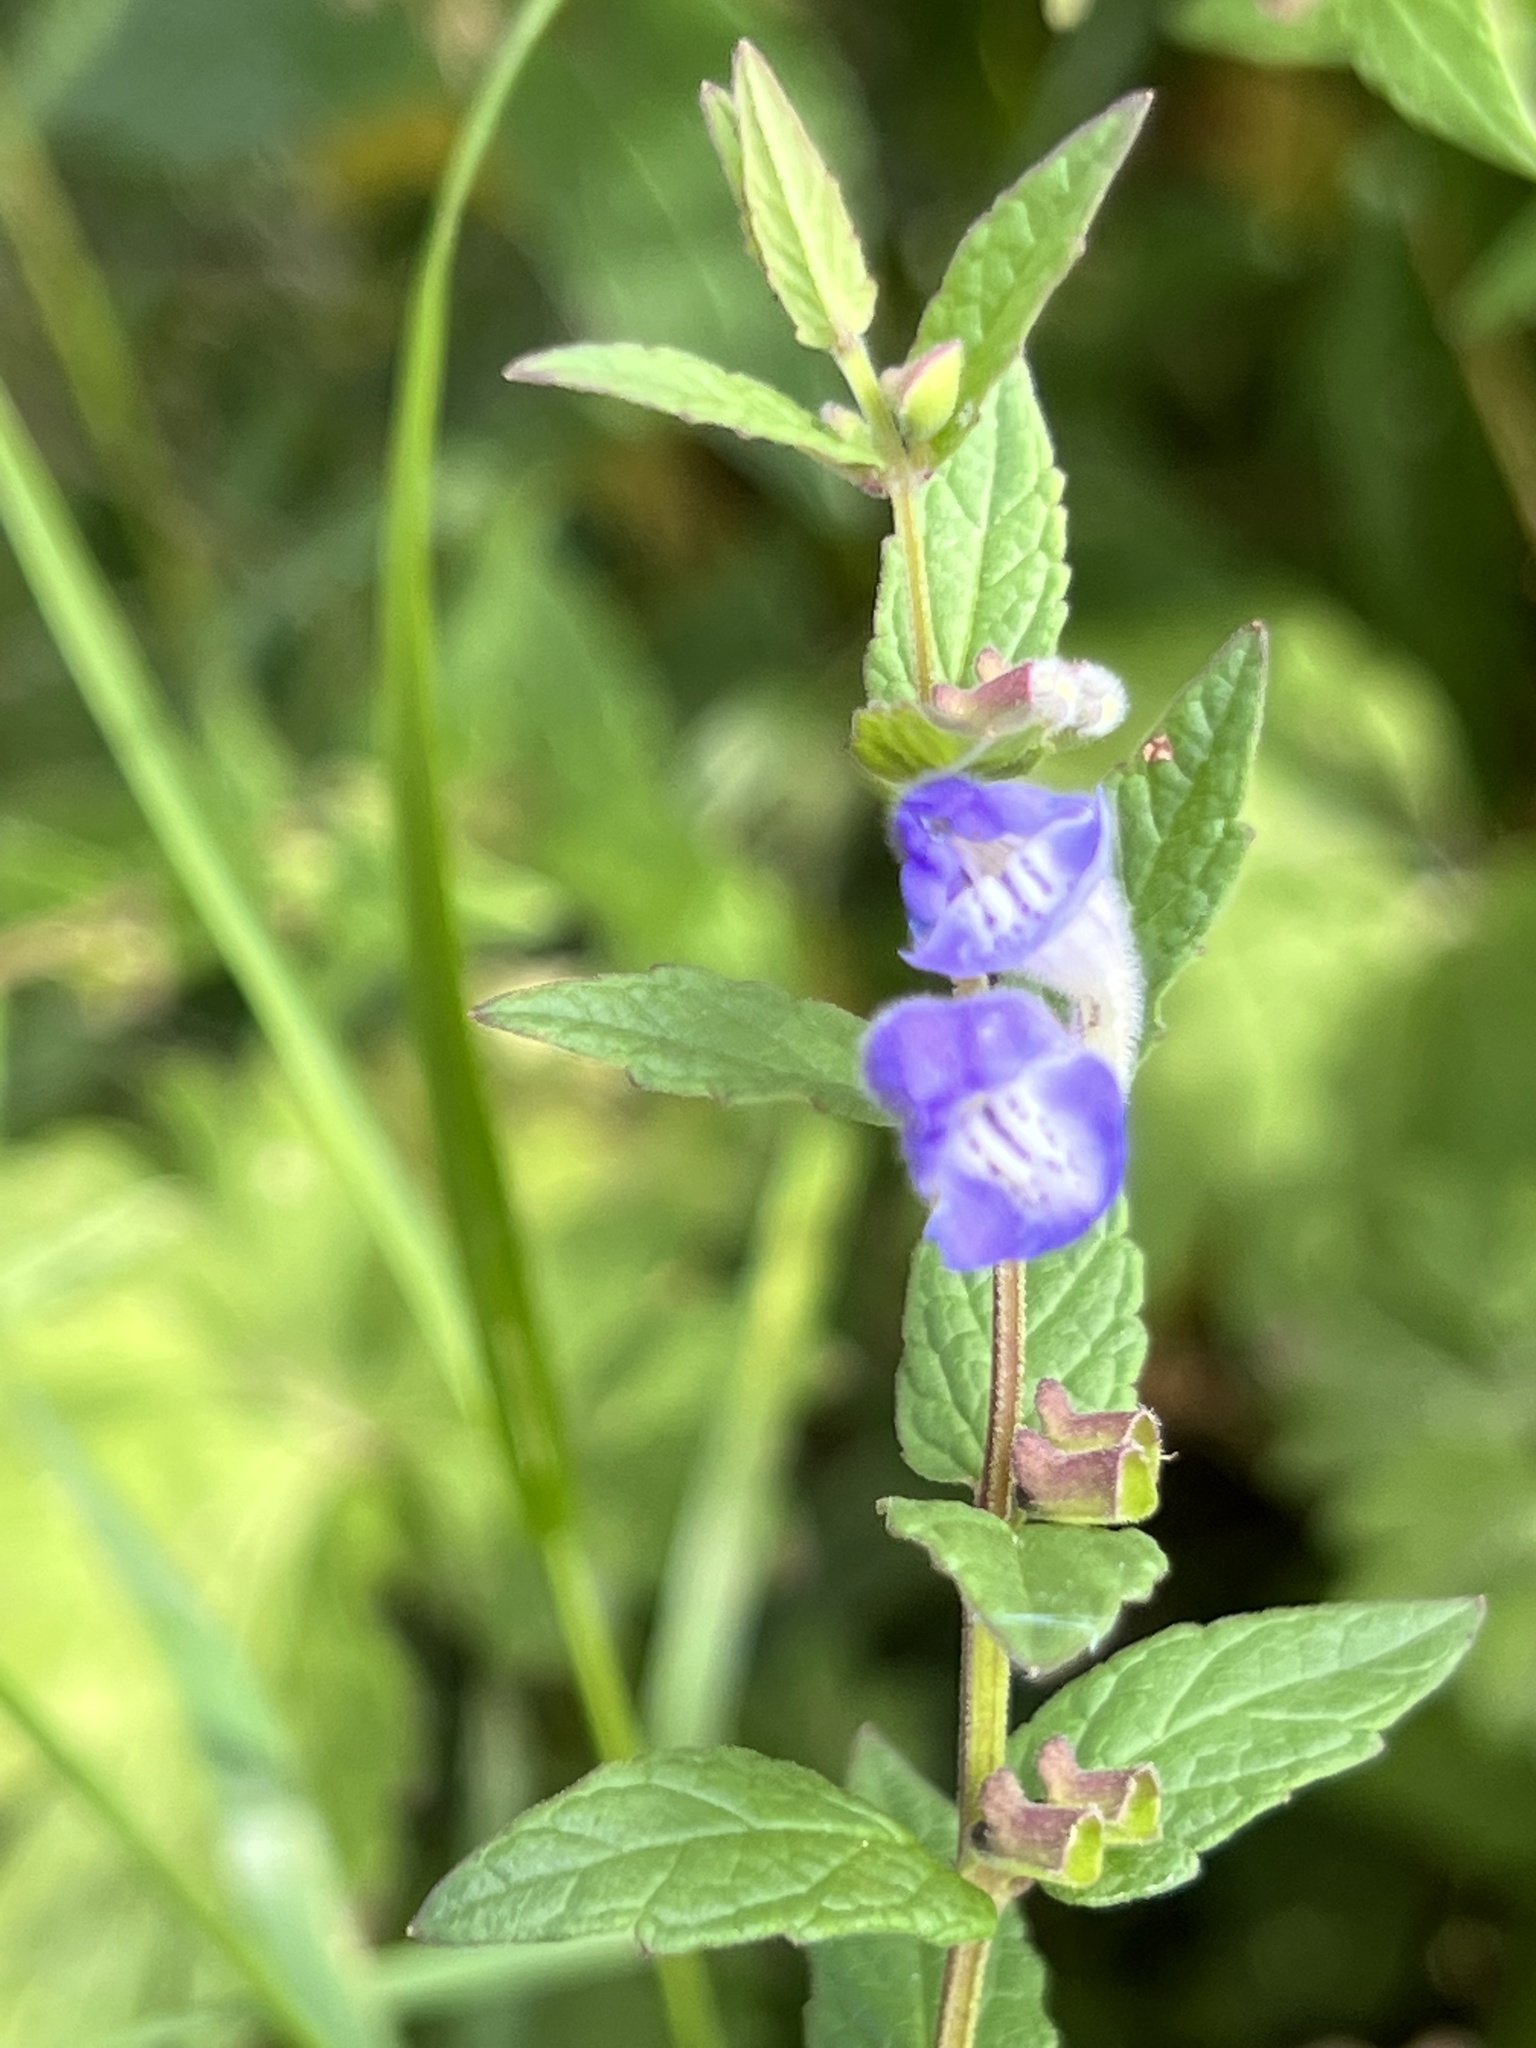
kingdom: Plantae
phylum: Tracheophyta
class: Magnoliopsida
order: Lamiales
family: Lamiaceae
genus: Scutellaria
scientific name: Scutellaria galericulata
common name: Skullcap
